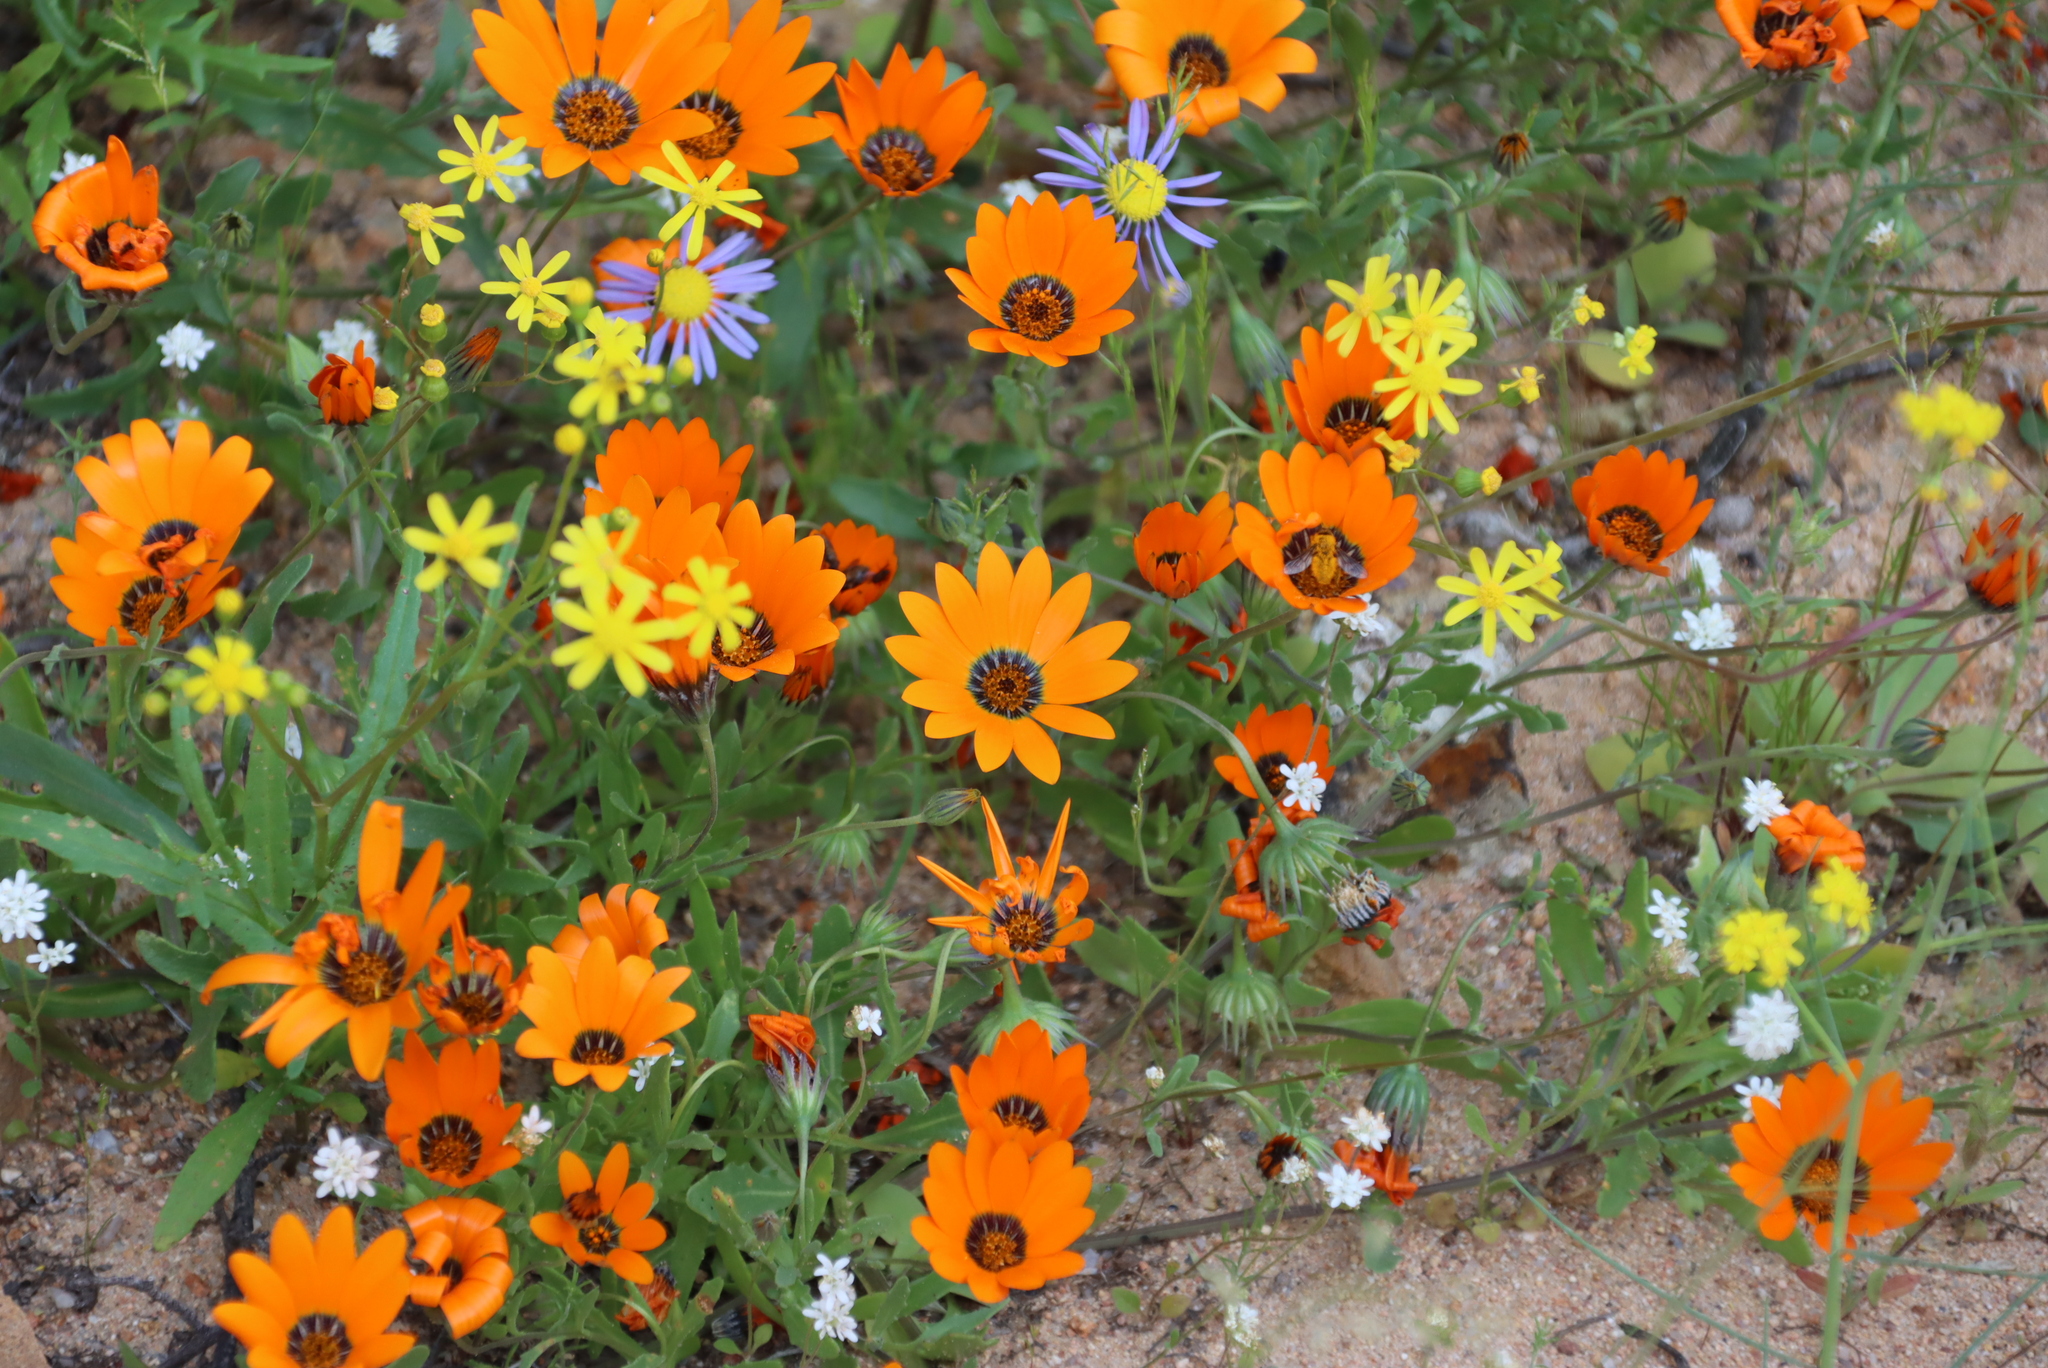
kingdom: Plantae
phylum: Tracheophyta
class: Magnoliopsida
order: Asterales
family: Asteraceae
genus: Dimorphotheca
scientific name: Dimorphotheca sinuata
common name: Glandular cape marigold
